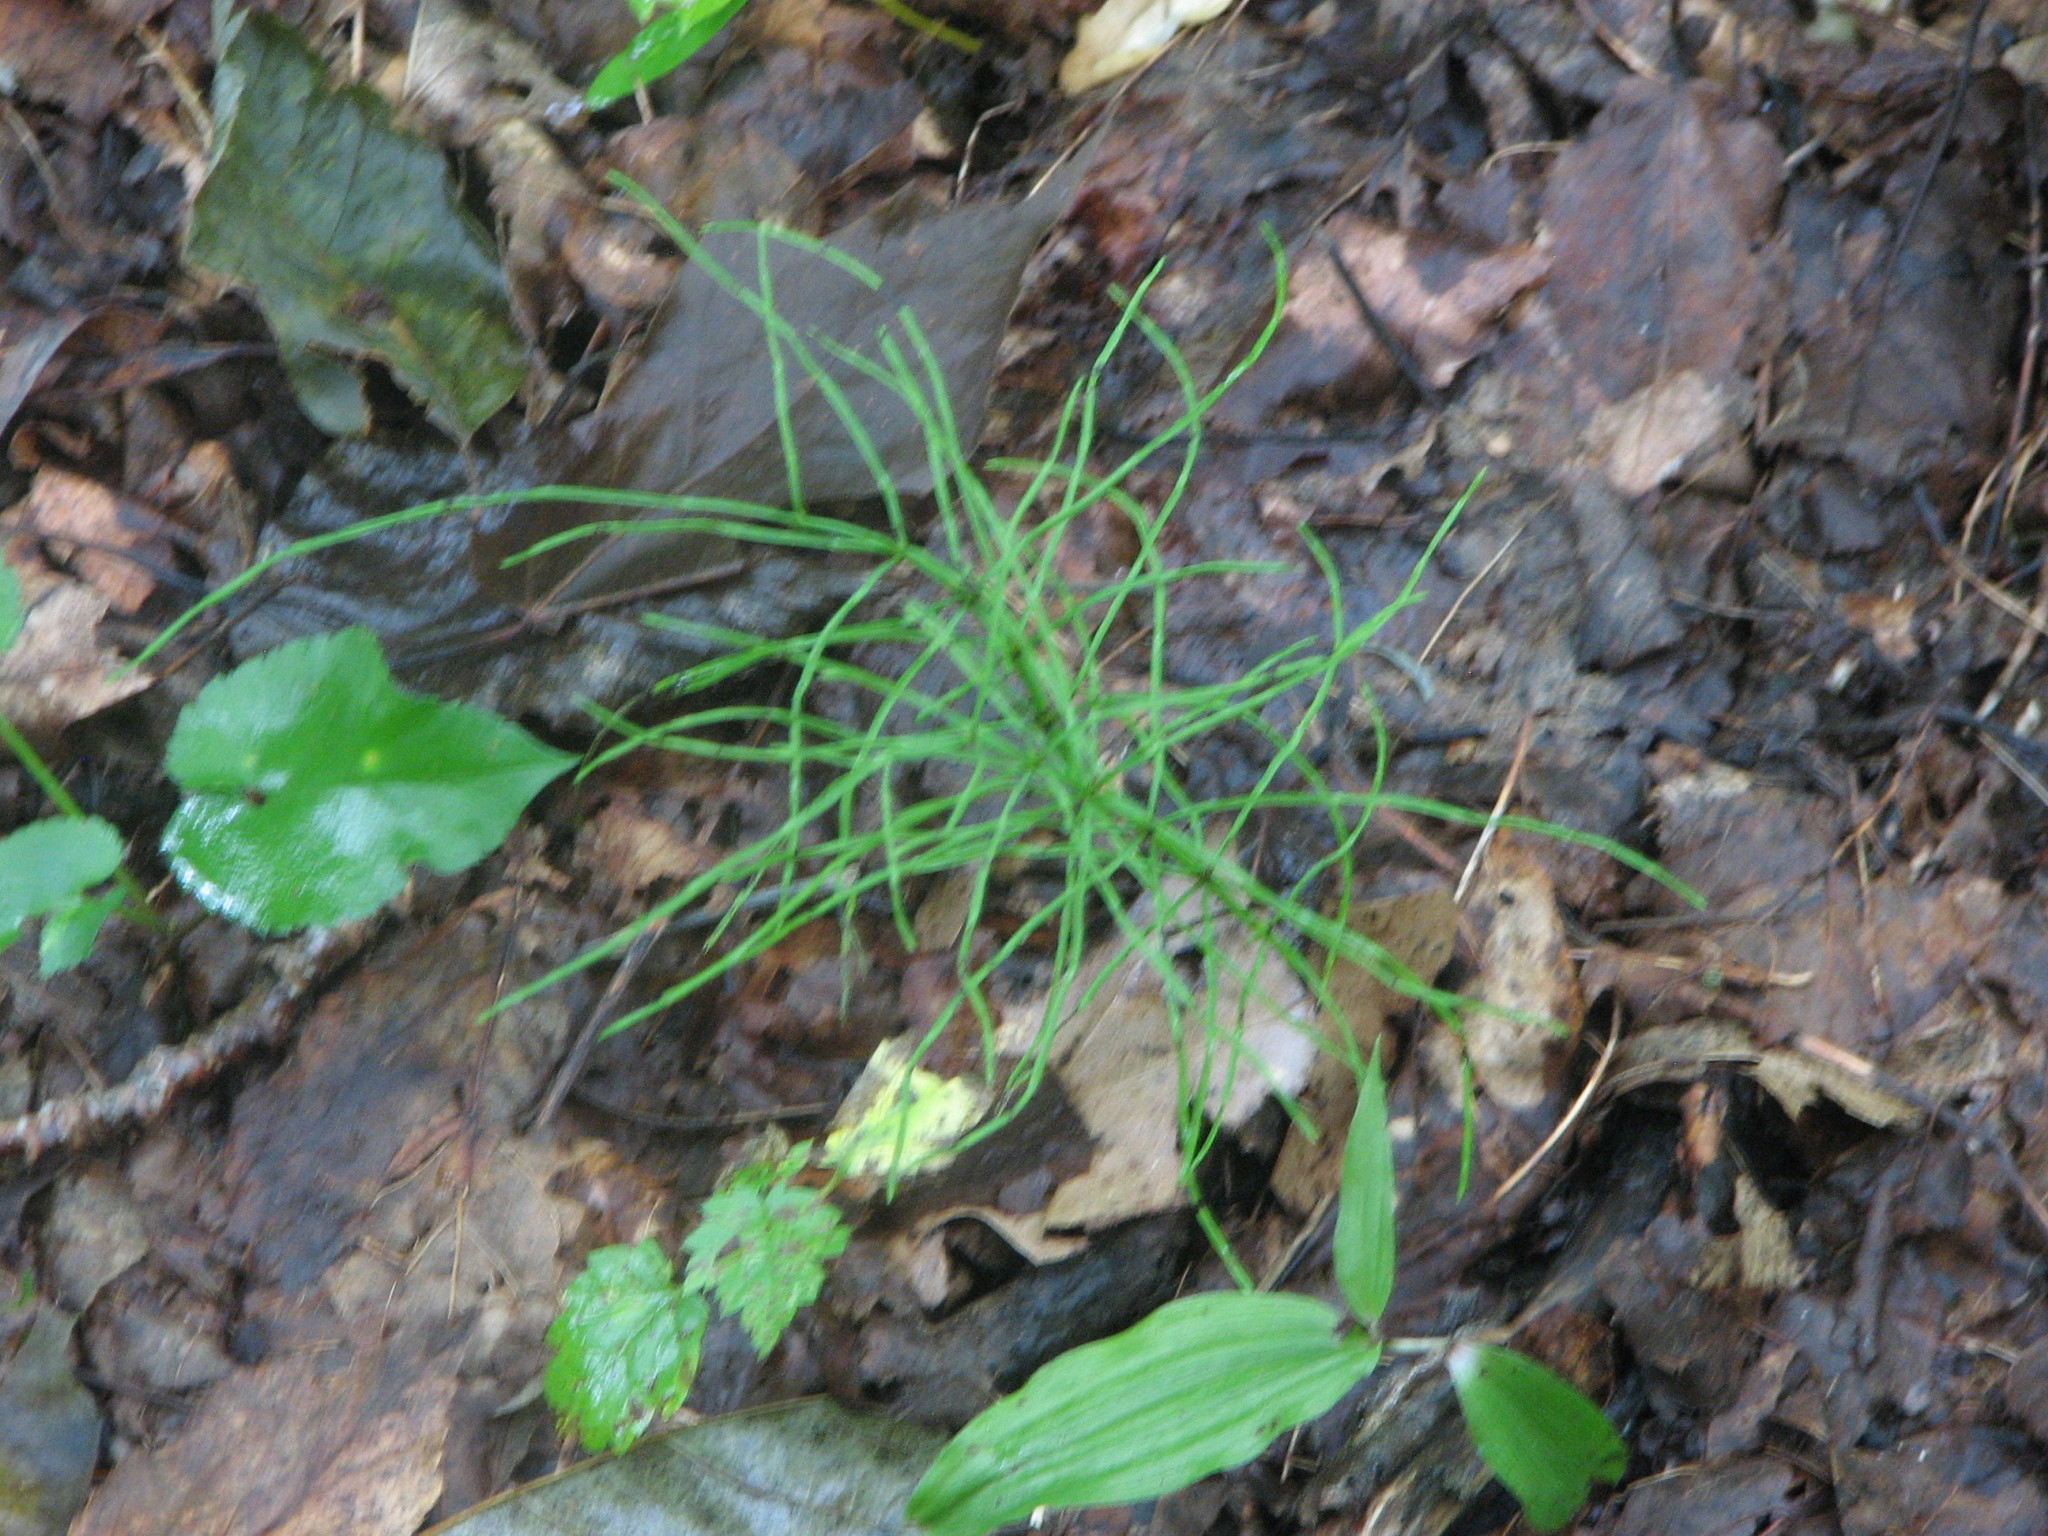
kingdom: Plantae
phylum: Tracheophyta
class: Polypodiopsida
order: Equisetales
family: Equisetaceae
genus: Equisetum
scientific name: Equisetum arvense
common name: Field horsetail
